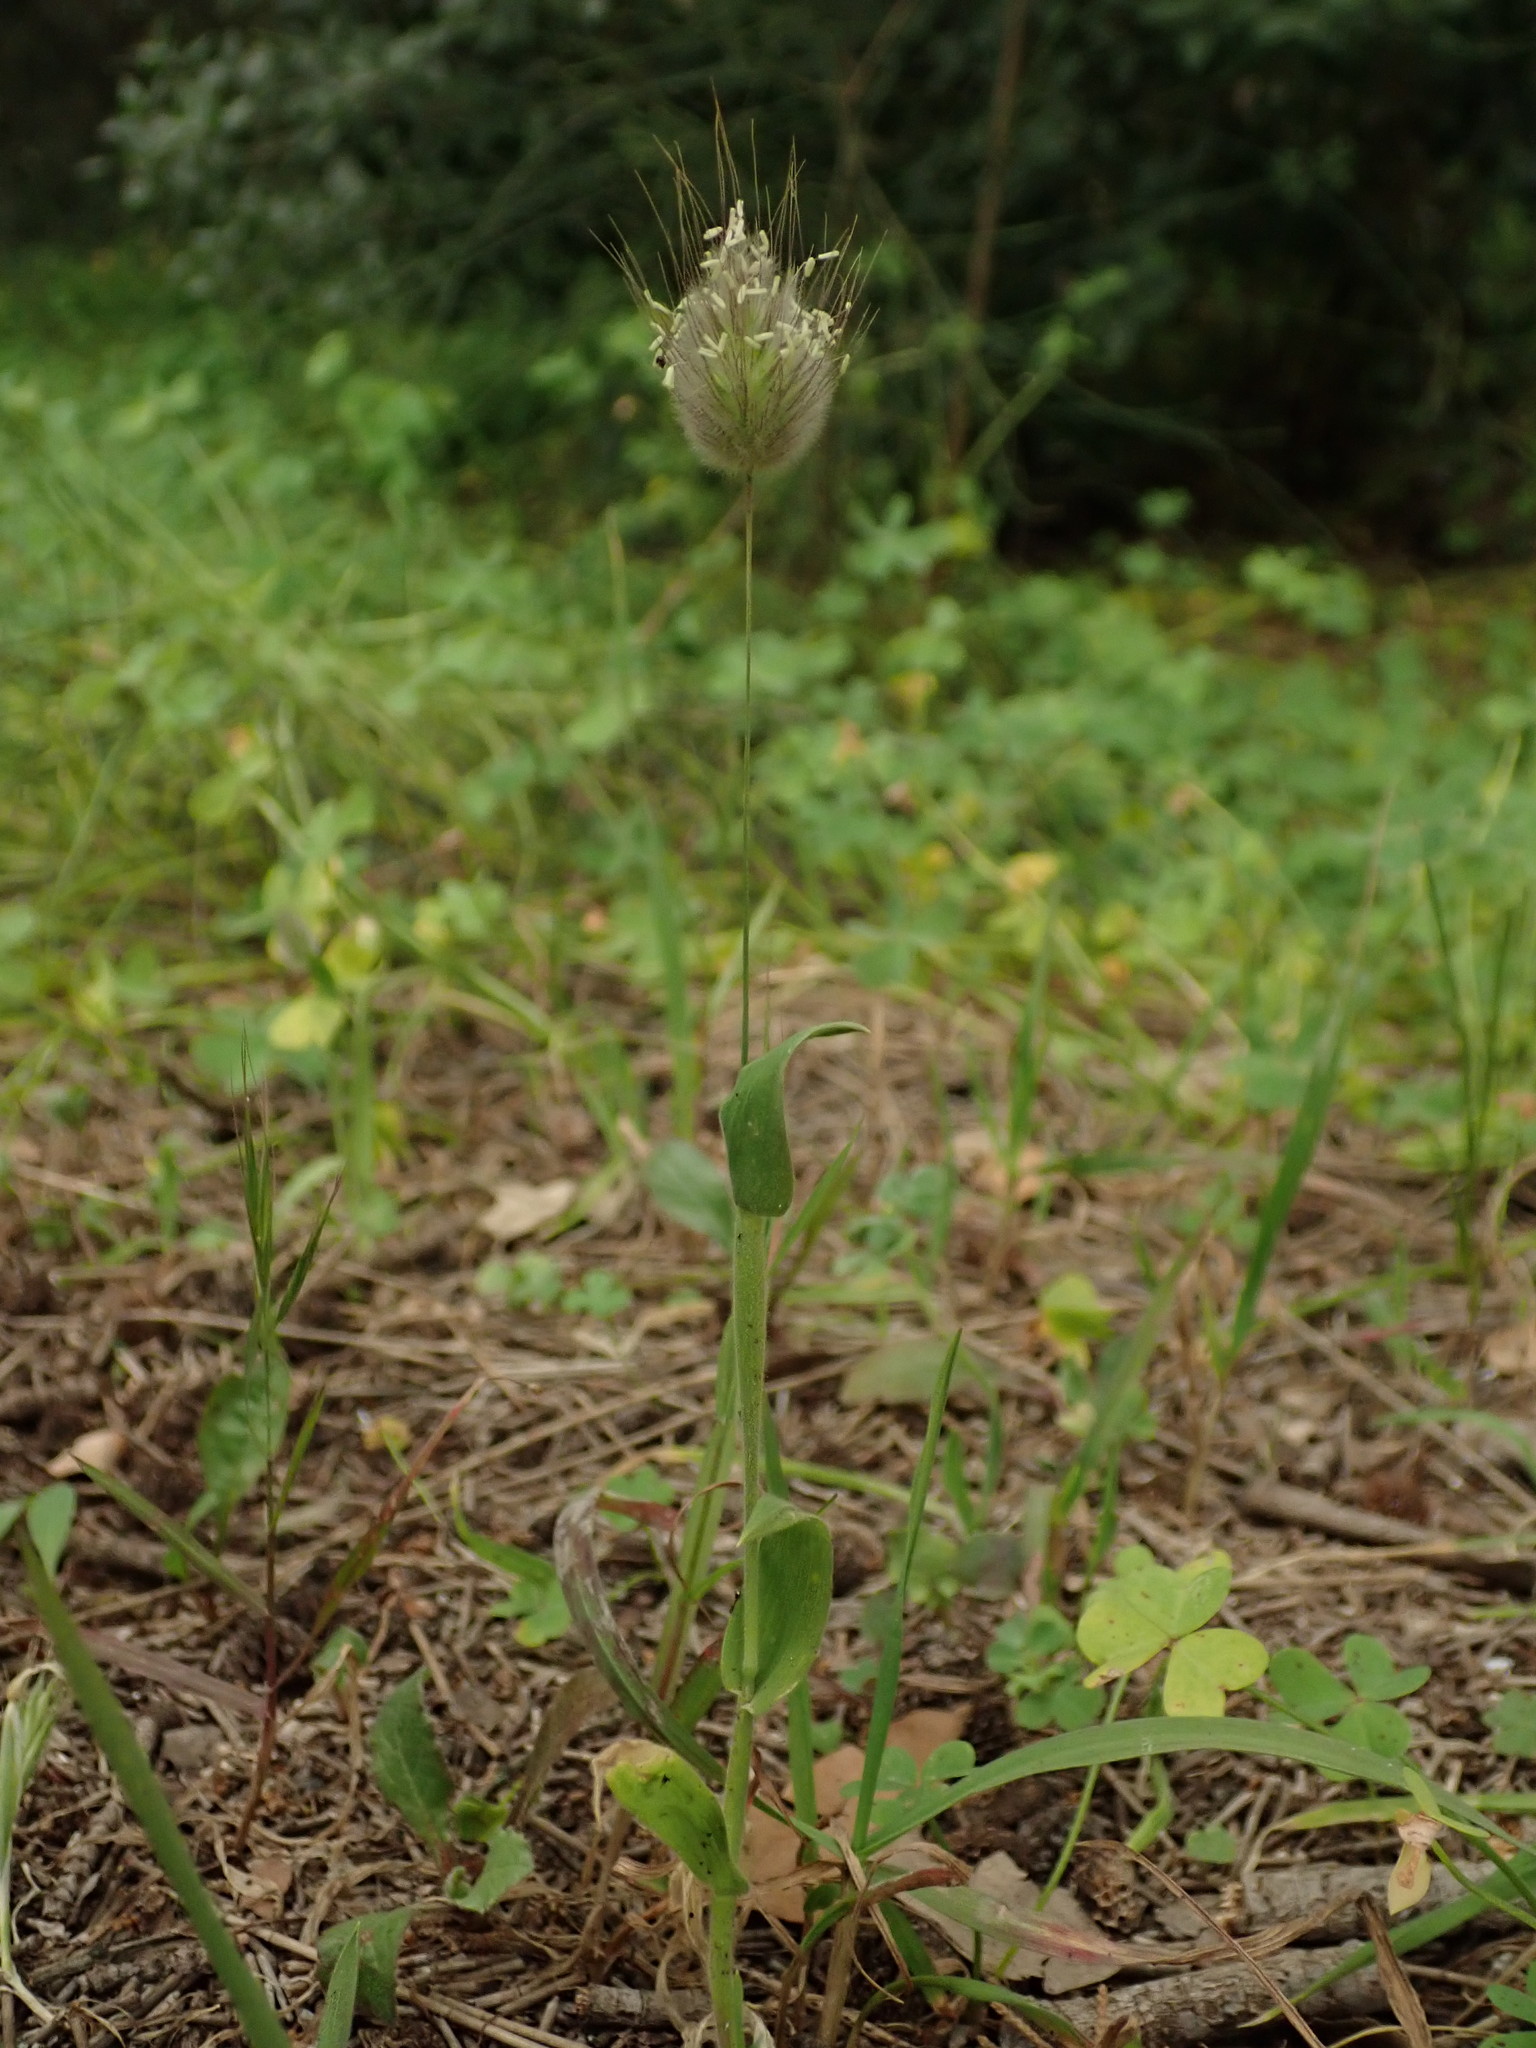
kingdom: Plantae
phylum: Tracheophyta
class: Liliopsida
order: Poales
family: Poaceae
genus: Lagurus
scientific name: Lagurus ovatus
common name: Hare's-tail
